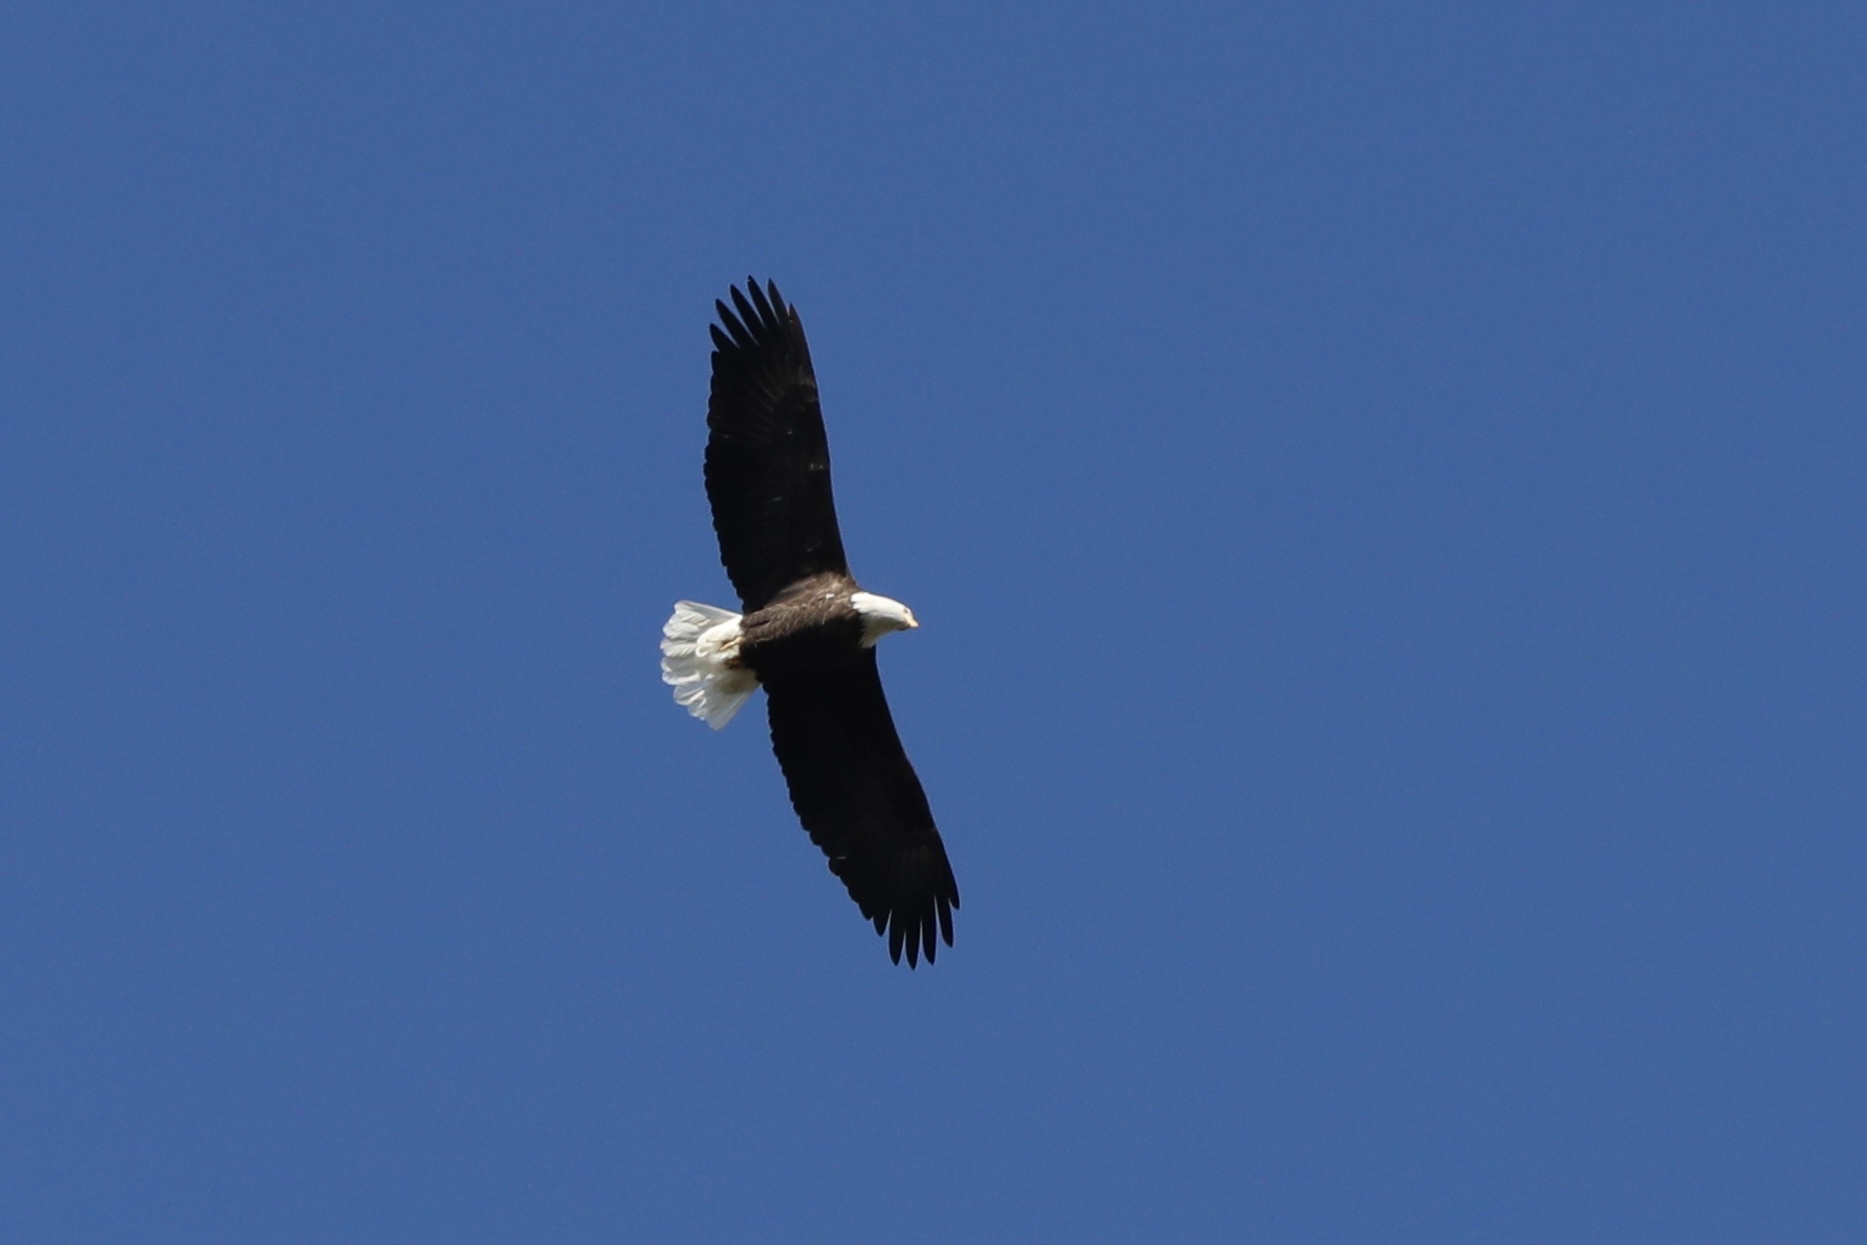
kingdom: Animalia
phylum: Chordata
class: Aves
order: Accipitriformes
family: Accipitridae
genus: Haliaeetus
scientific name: Haliaeetus leucocephalus
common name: Bald eagle
